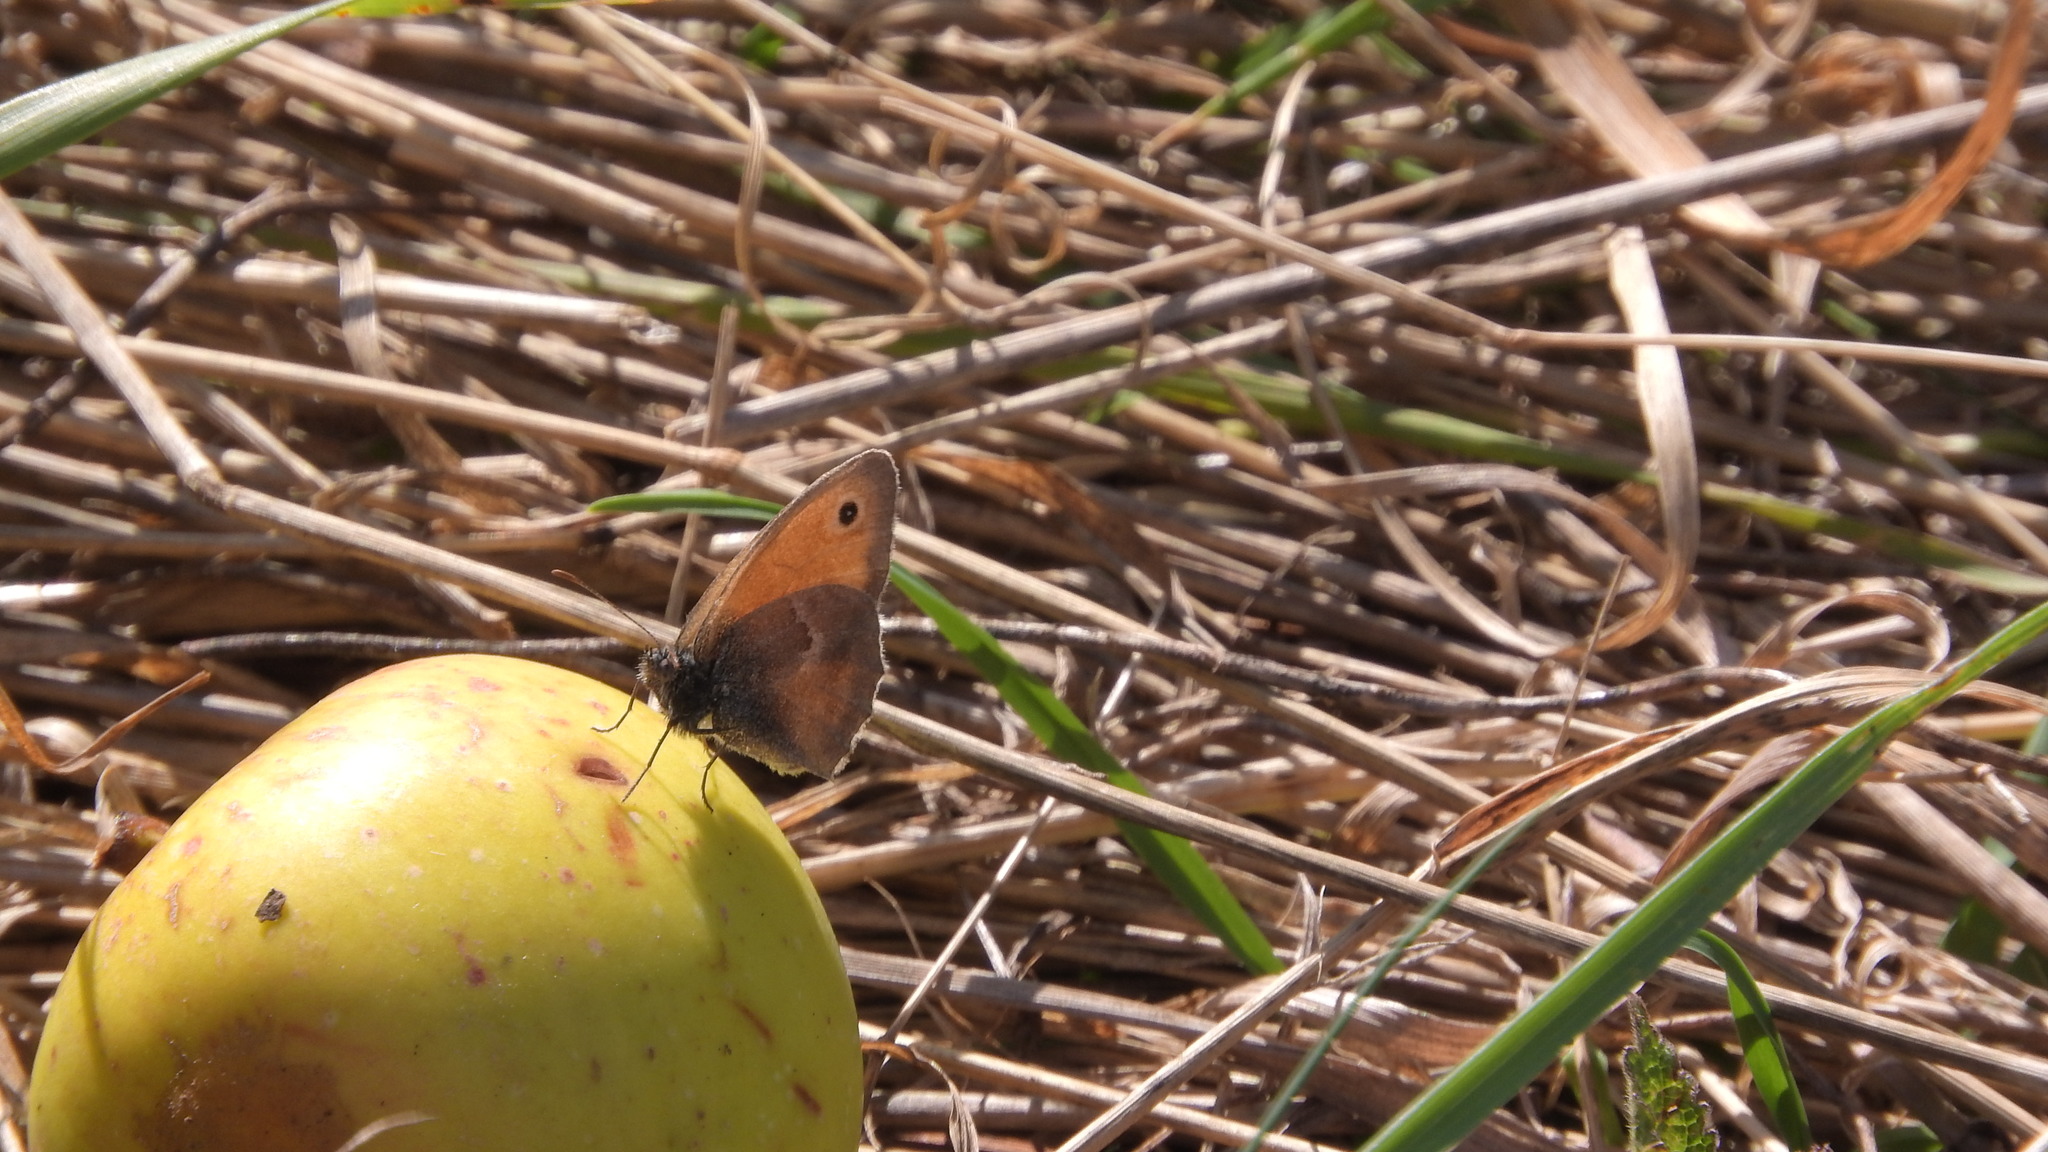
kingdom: Animalia
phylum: Arthropoda
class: Insecta
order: Lepidoptera
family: Nymphalidae
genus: Coenonympha
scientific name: Coenonympha pamphilus
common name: Small heath
